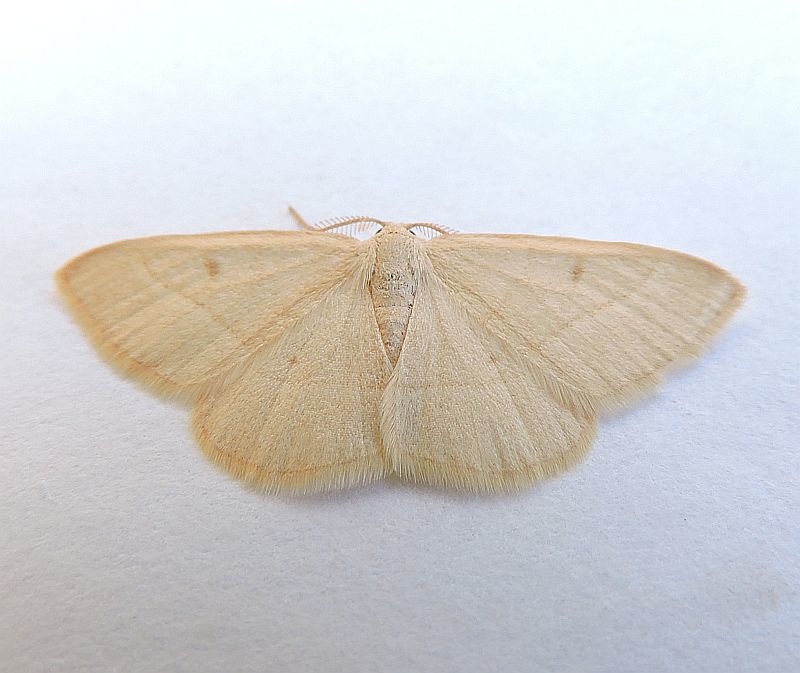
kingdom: Animalia
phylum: Arthropoda
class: Insecta
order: Lepidoptera
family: Geometridae
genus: Sperrya
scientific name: Sperrya cervula
